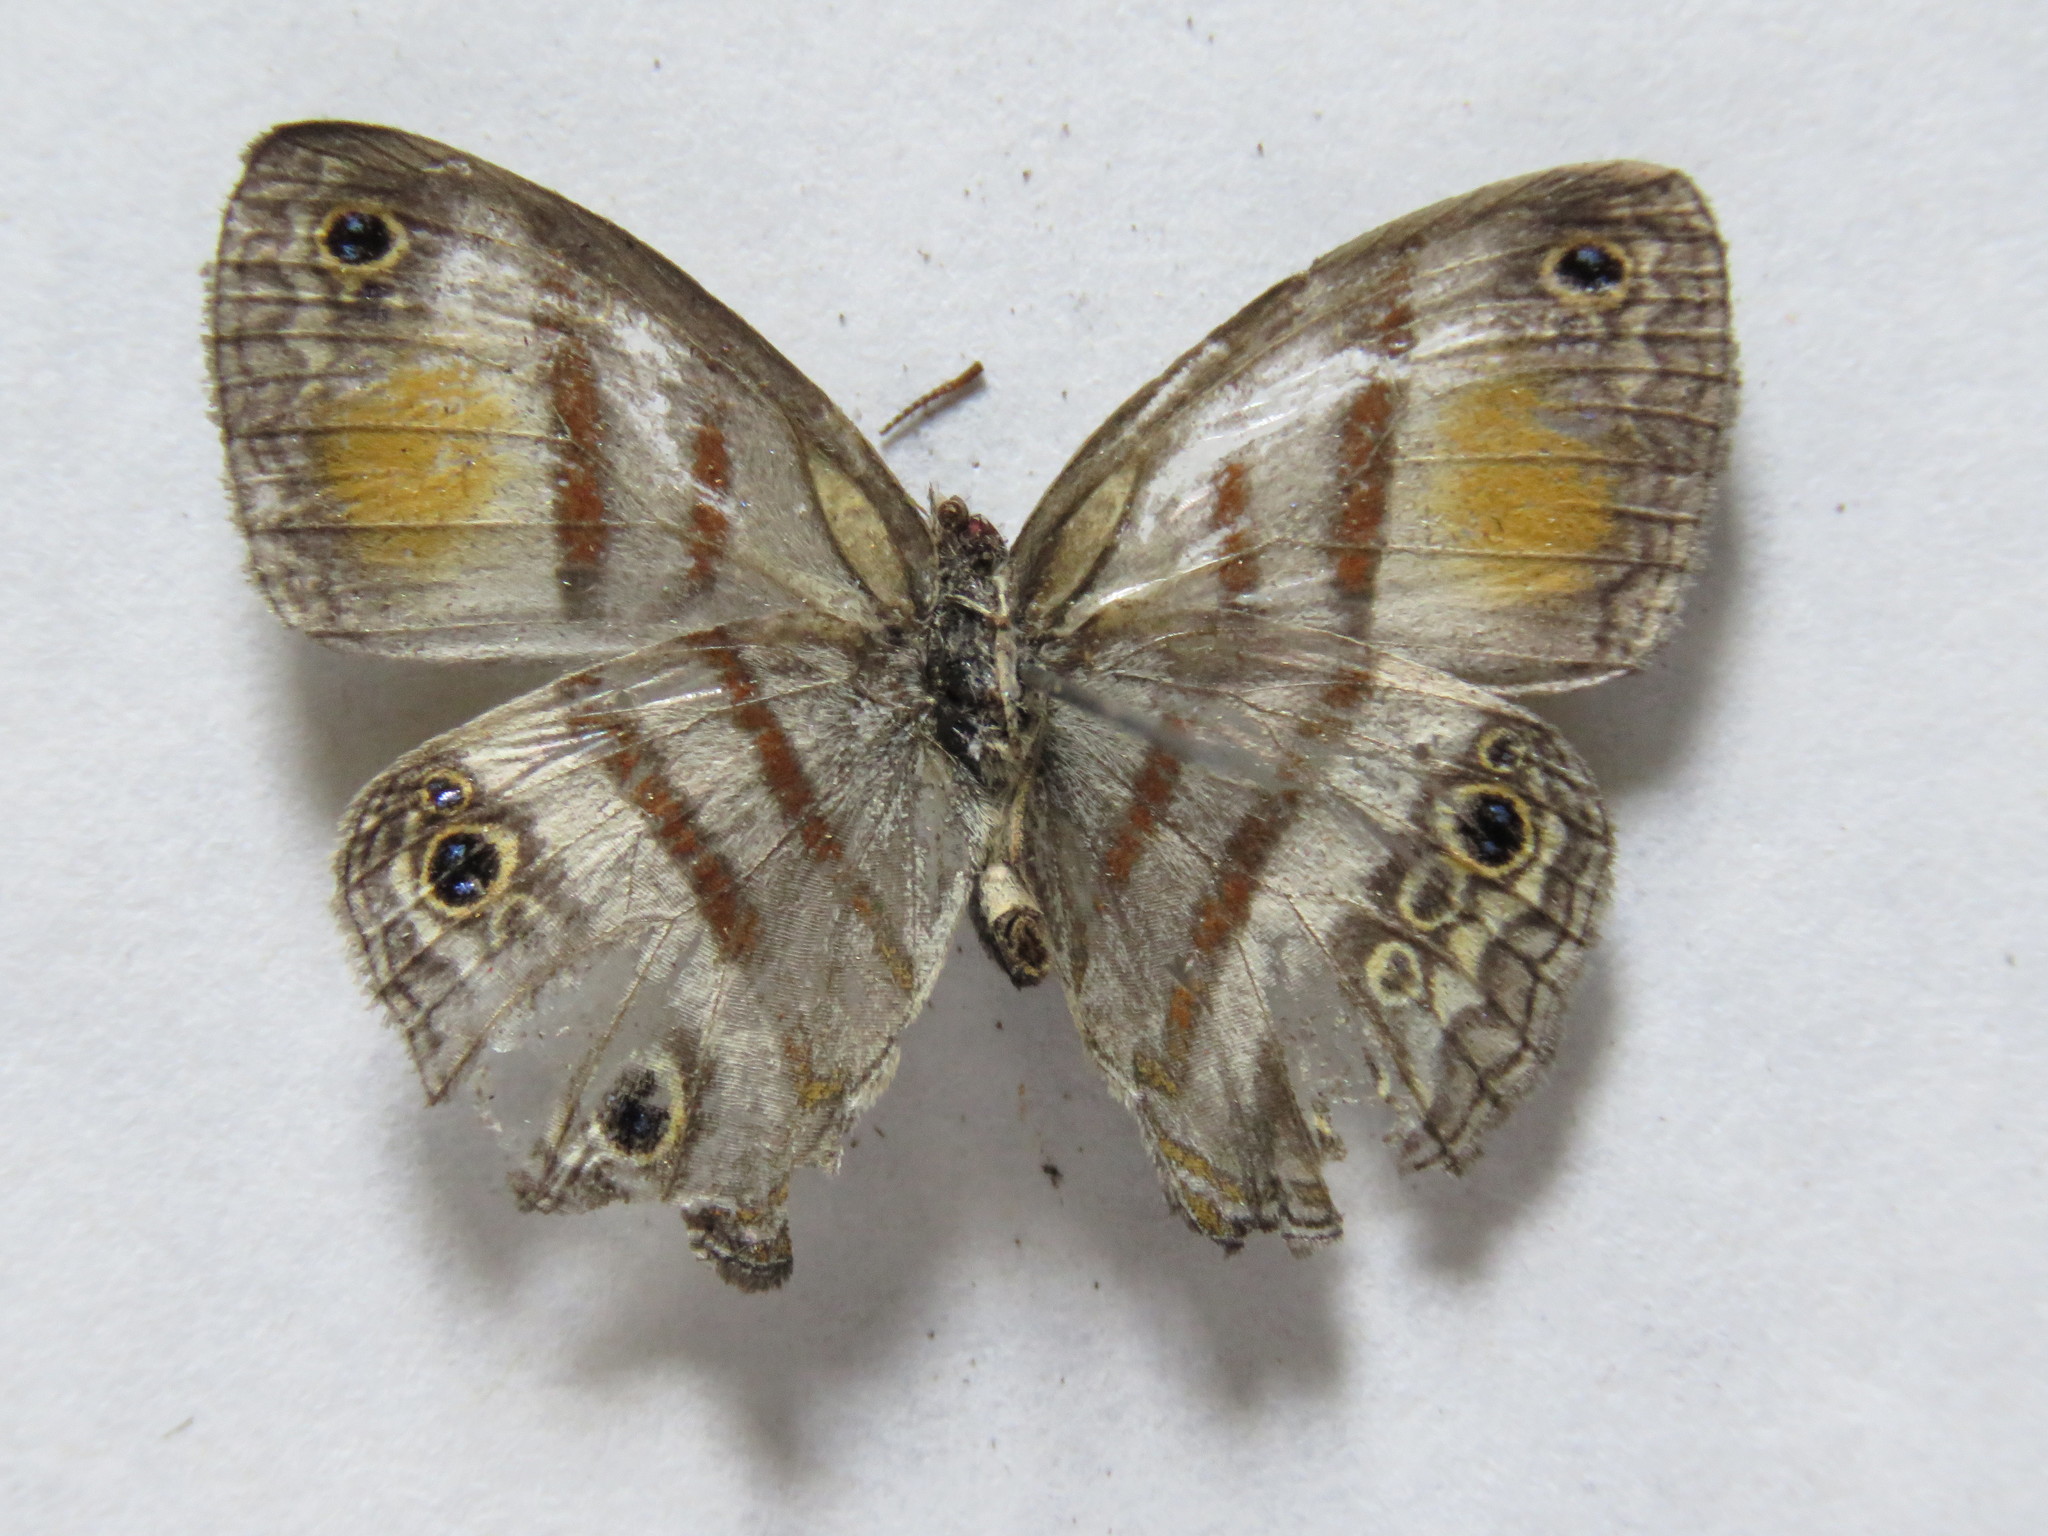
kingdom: Animalia
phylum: Arthropoda
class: Insecta
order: Lepidoptera
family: Nymphalidae
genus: Paryphthimoides
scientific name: Paryphthimoides
